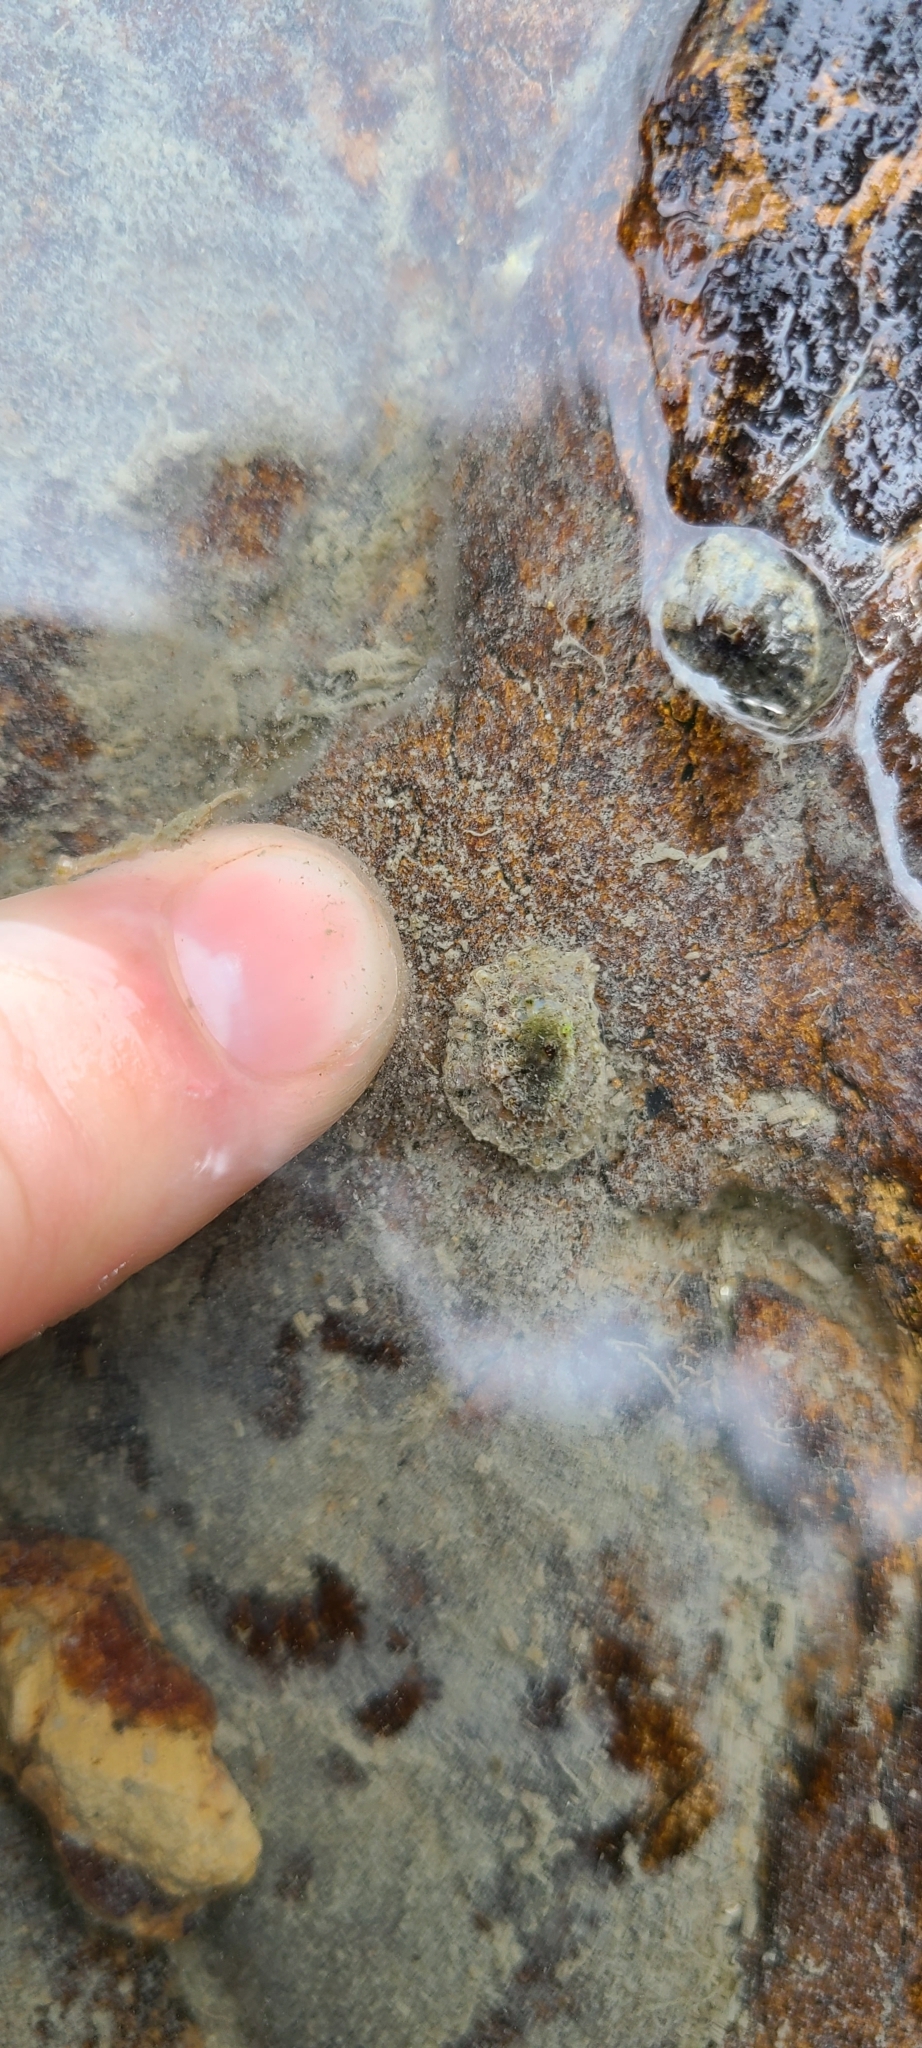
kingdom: Animalia
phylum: Mollusca
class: Gastropoda
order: Siphonariida
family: Siphonariidae
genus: Siphonaria
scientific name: Siphonaria australis
